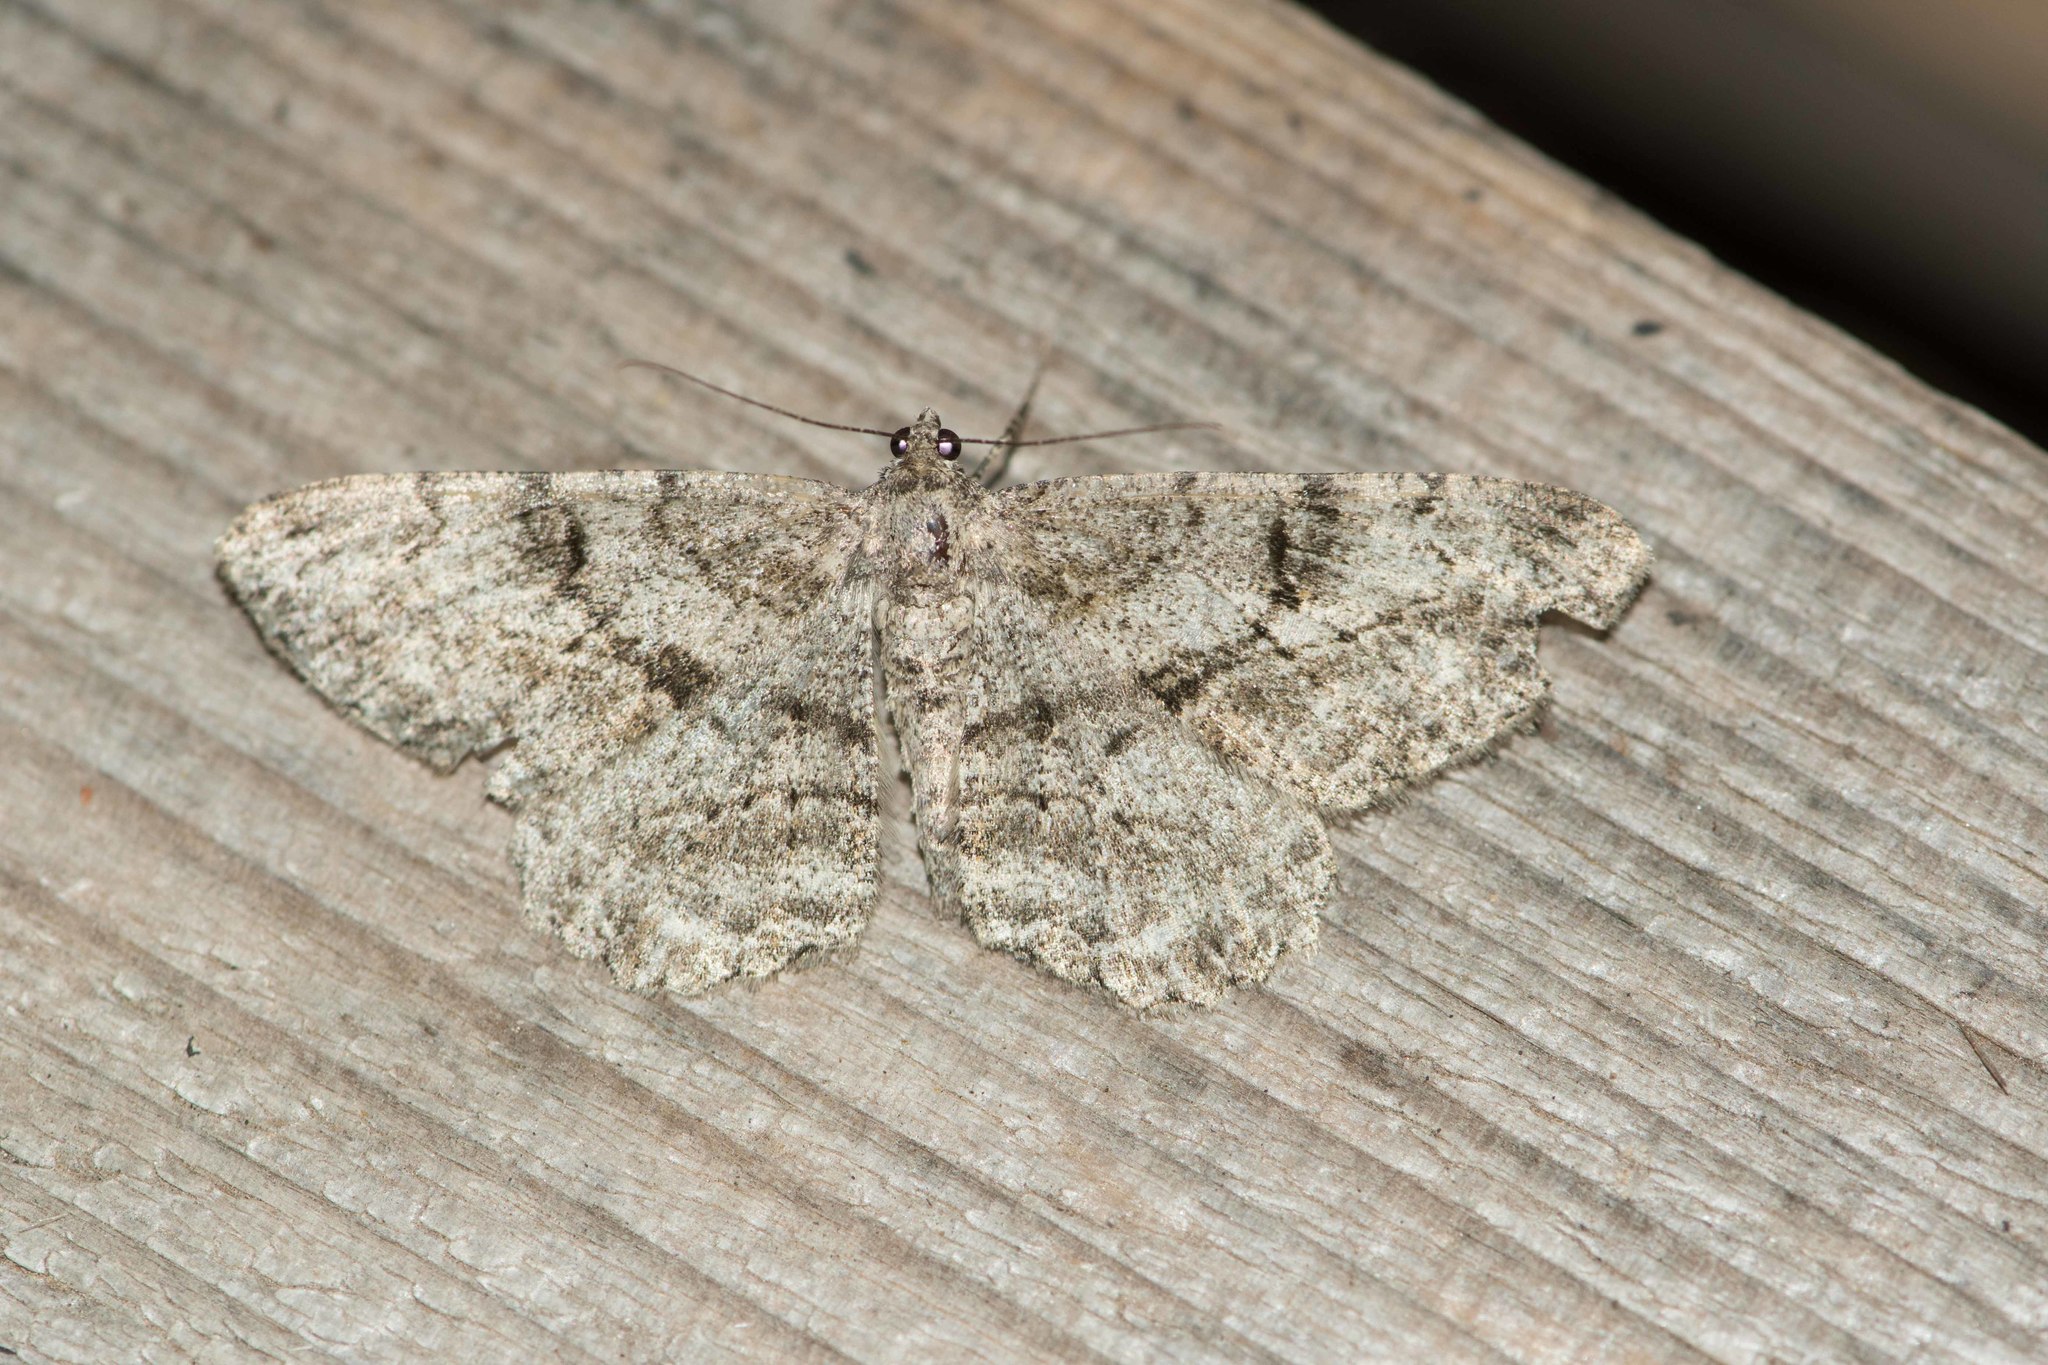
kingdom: Animalia
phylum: Arthropoda
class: Insecta
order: Lepidoptera
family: Geometridae
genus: Peribatodes
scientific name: Peribatodes rhomboidaria
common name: Willow beauty
